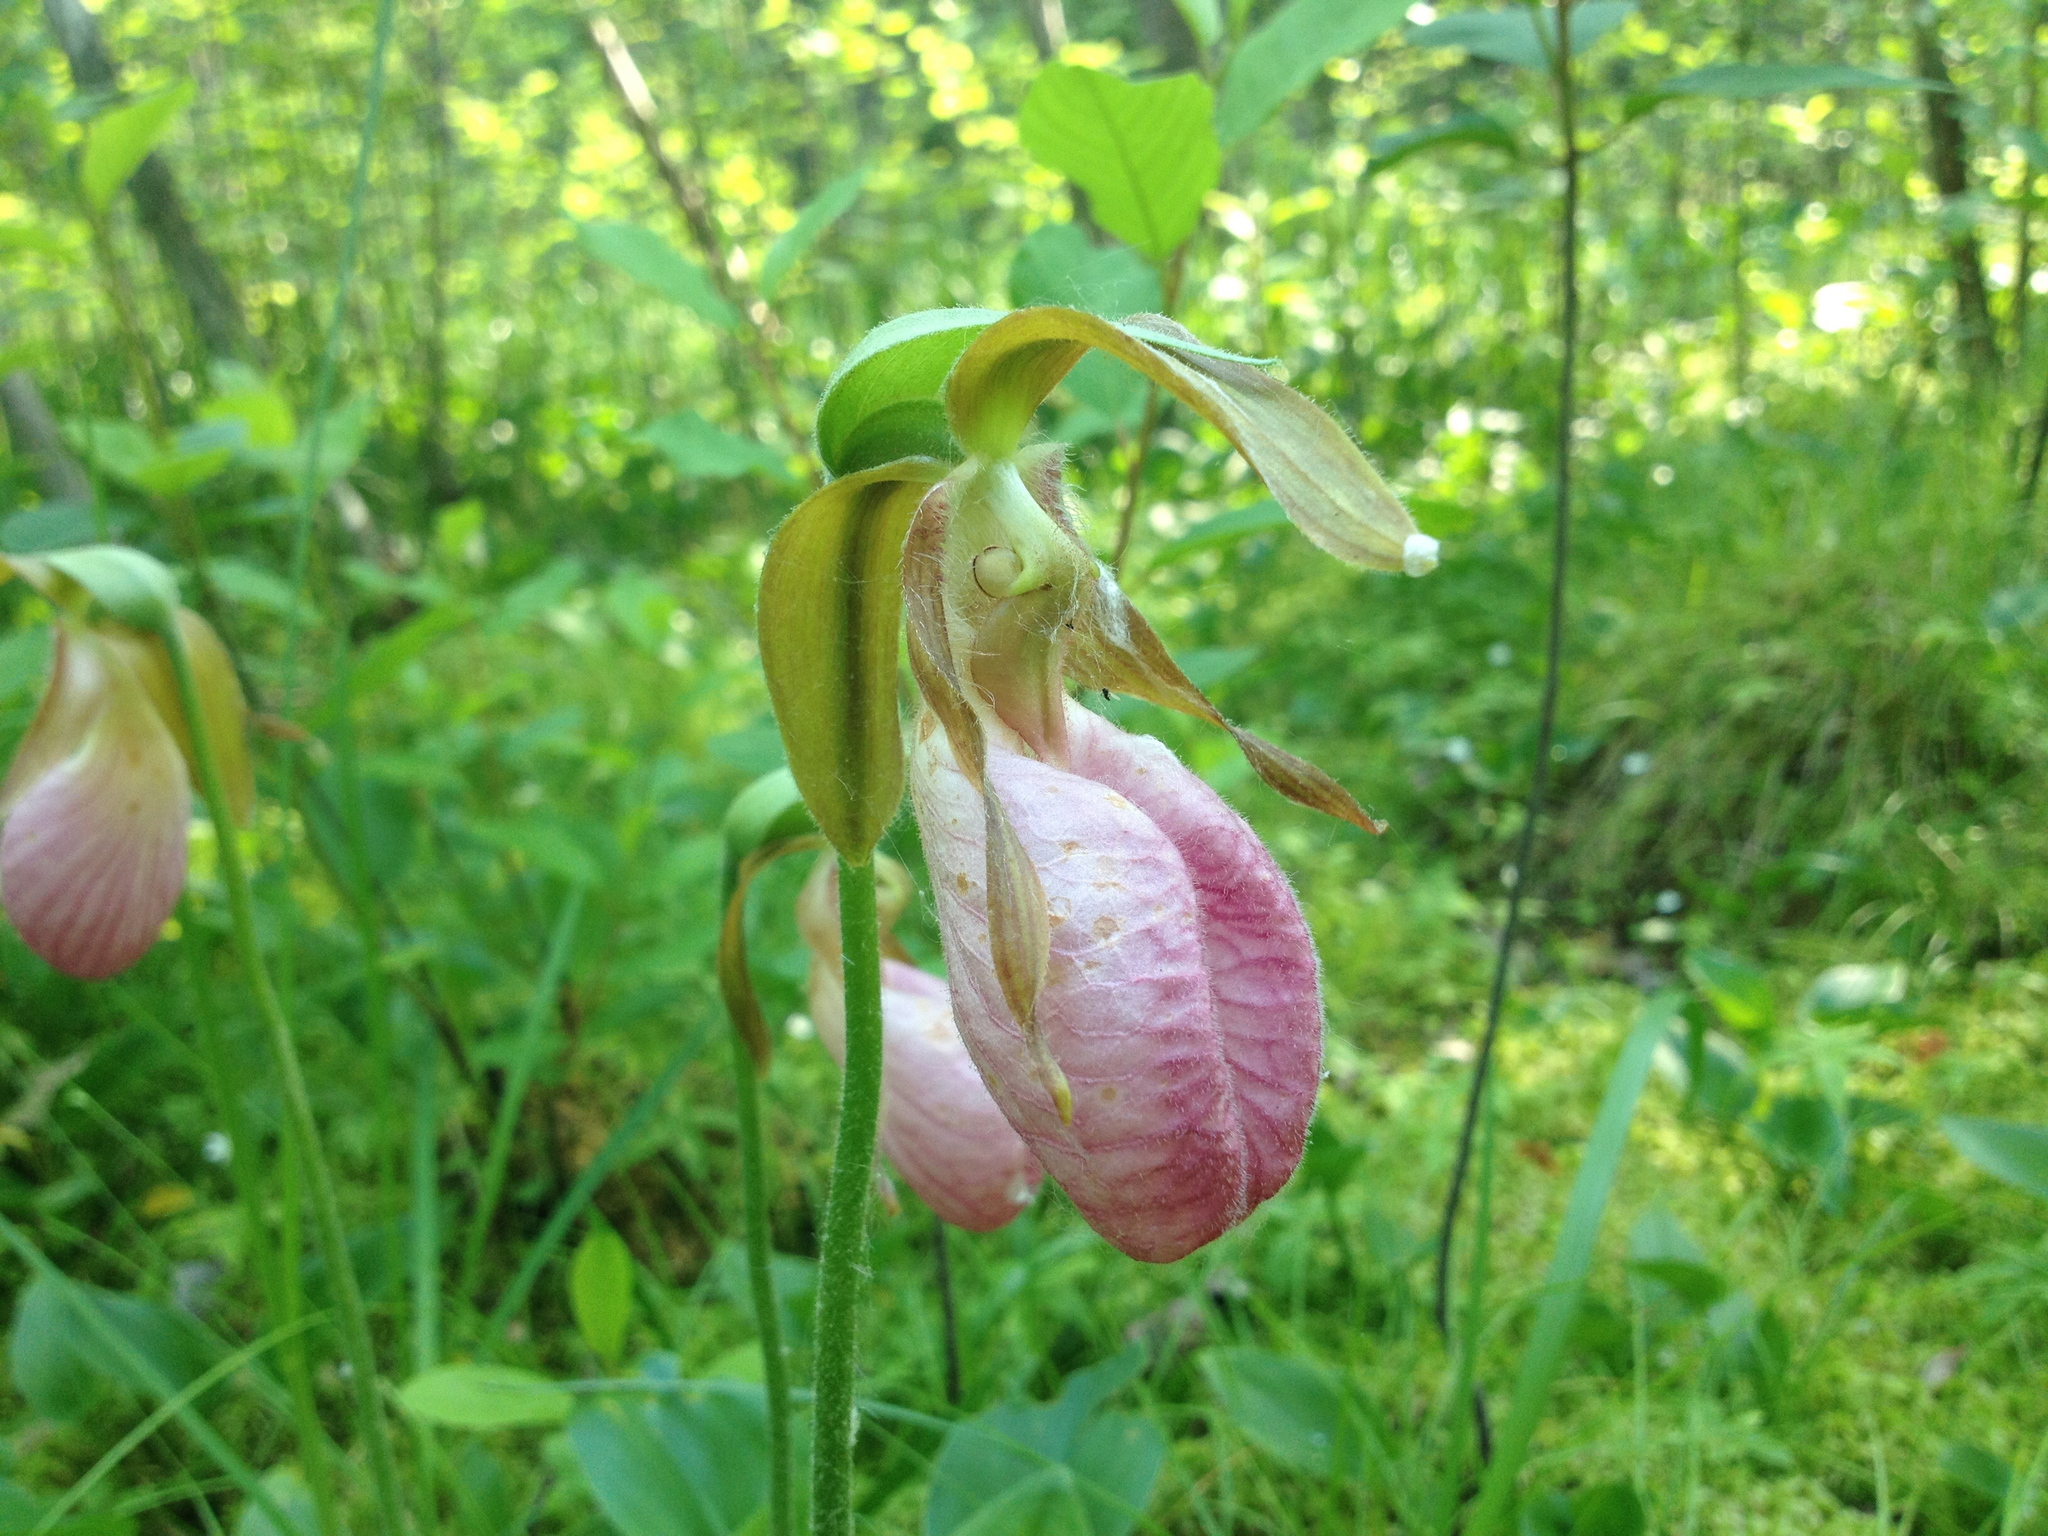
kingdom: Plantae
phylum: Tracheophyta
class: Liliopsida
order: Asparagales
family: Orchidaceae
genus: Cypripedium
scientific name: Cypripedium acaule
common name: Pink lady's-slipper
